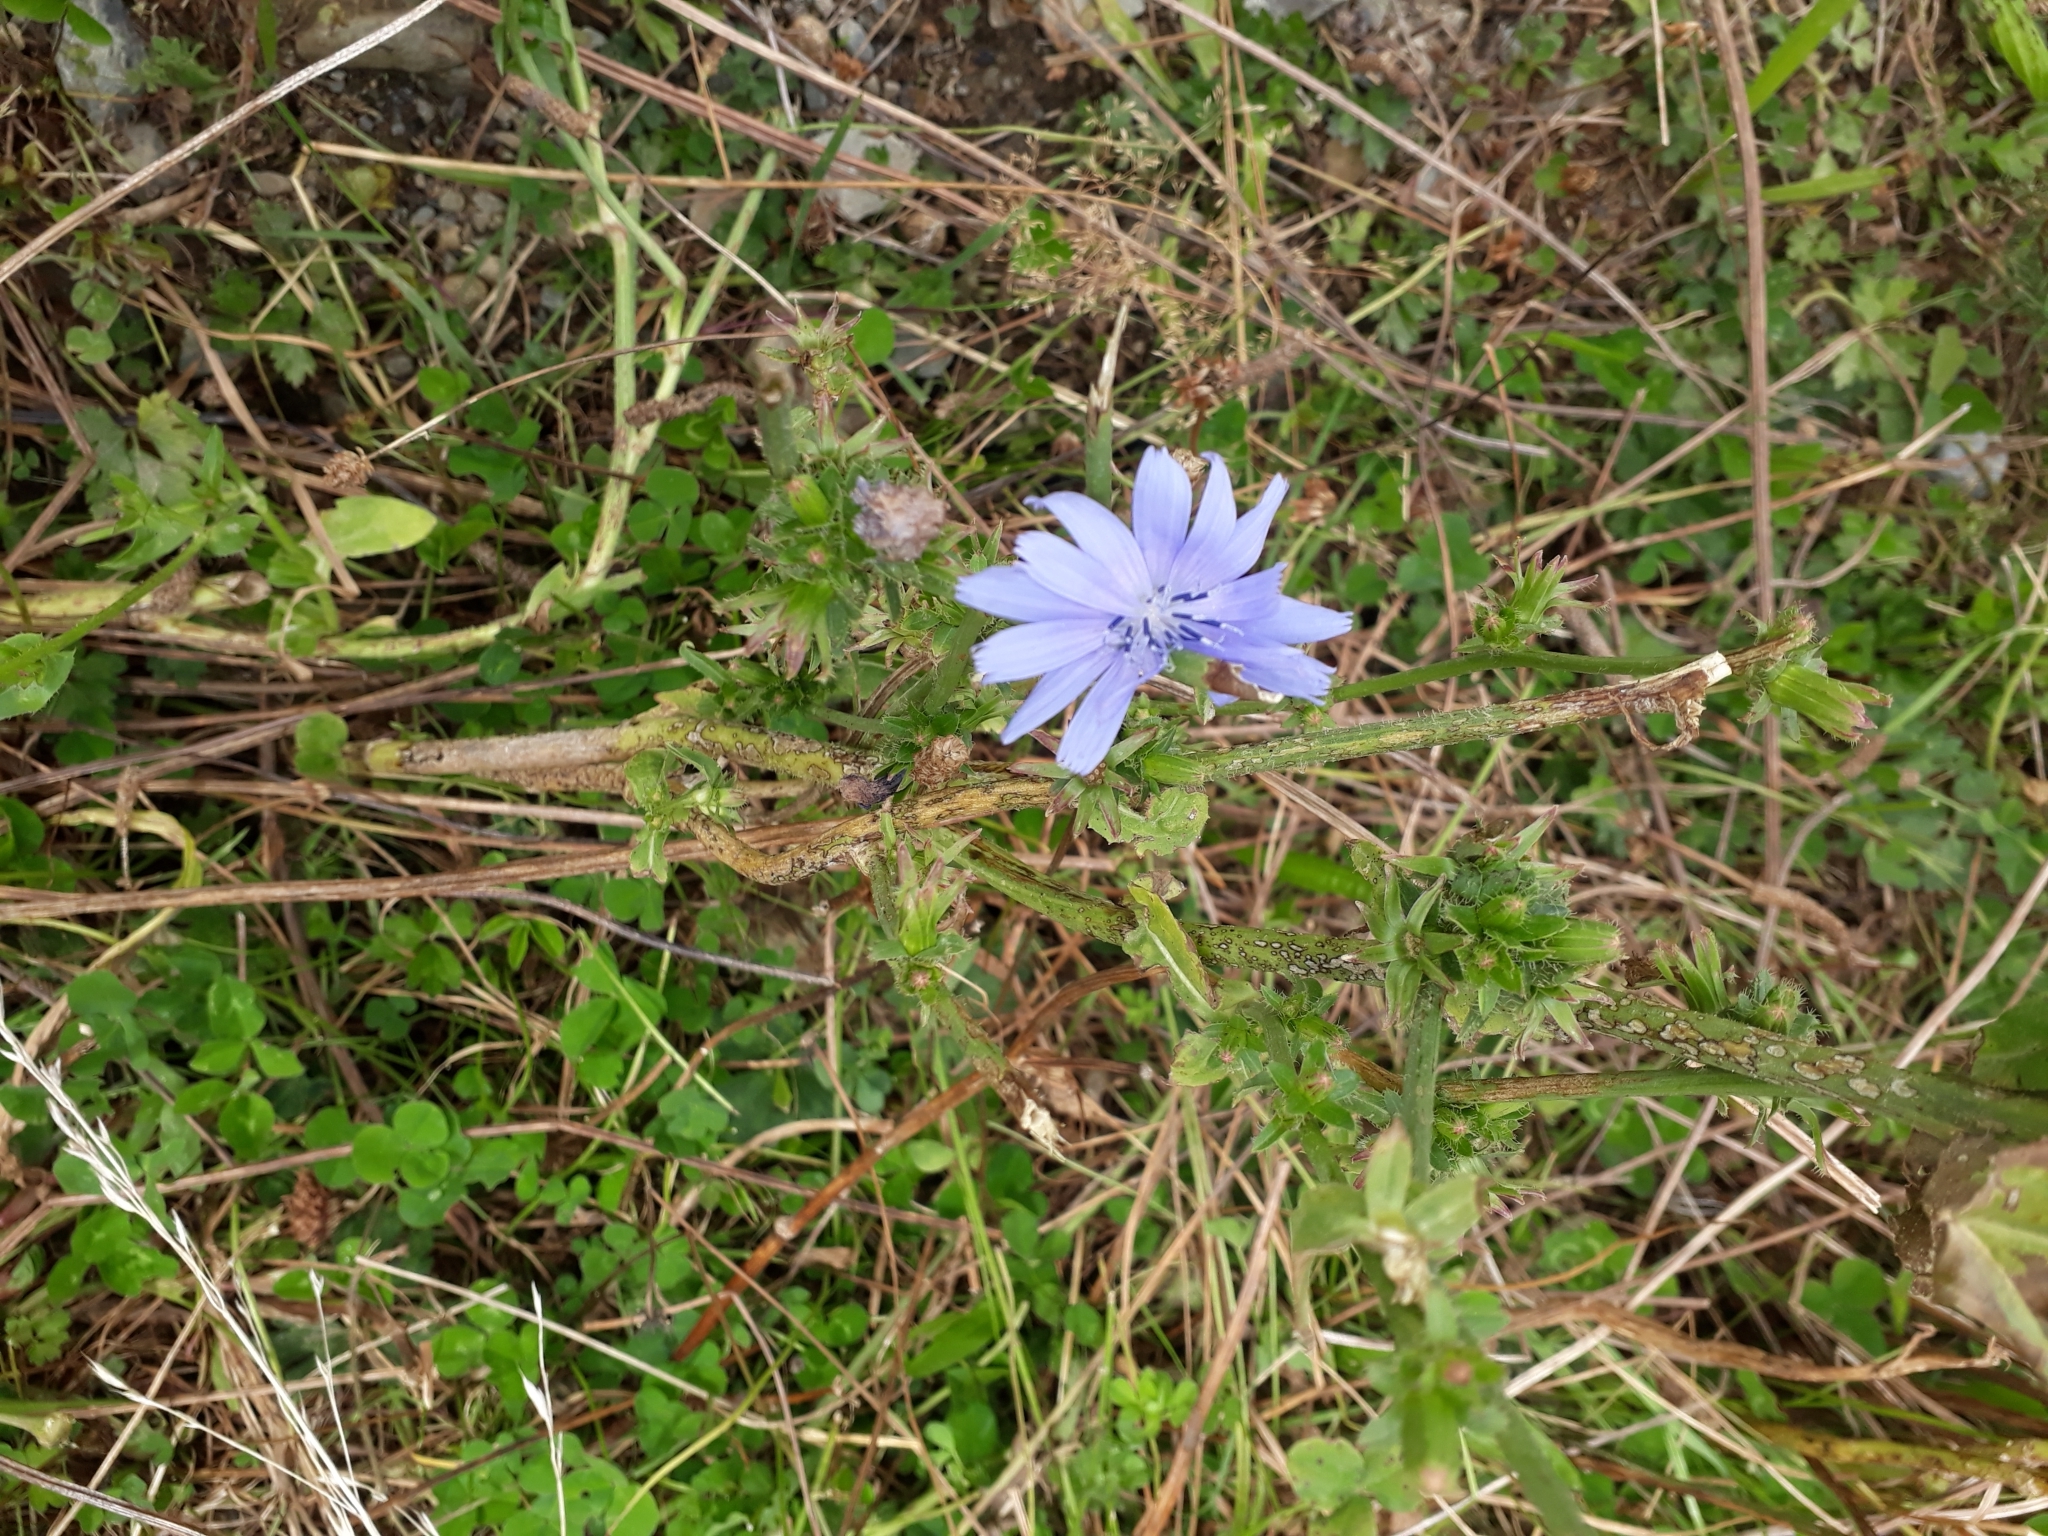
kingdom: Plantae
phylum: Tracheophyta
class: Magnoliopsida
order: Asterales
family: Asteraceae
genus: Cichorium
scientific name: Cichorium intybus
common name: Chicory
